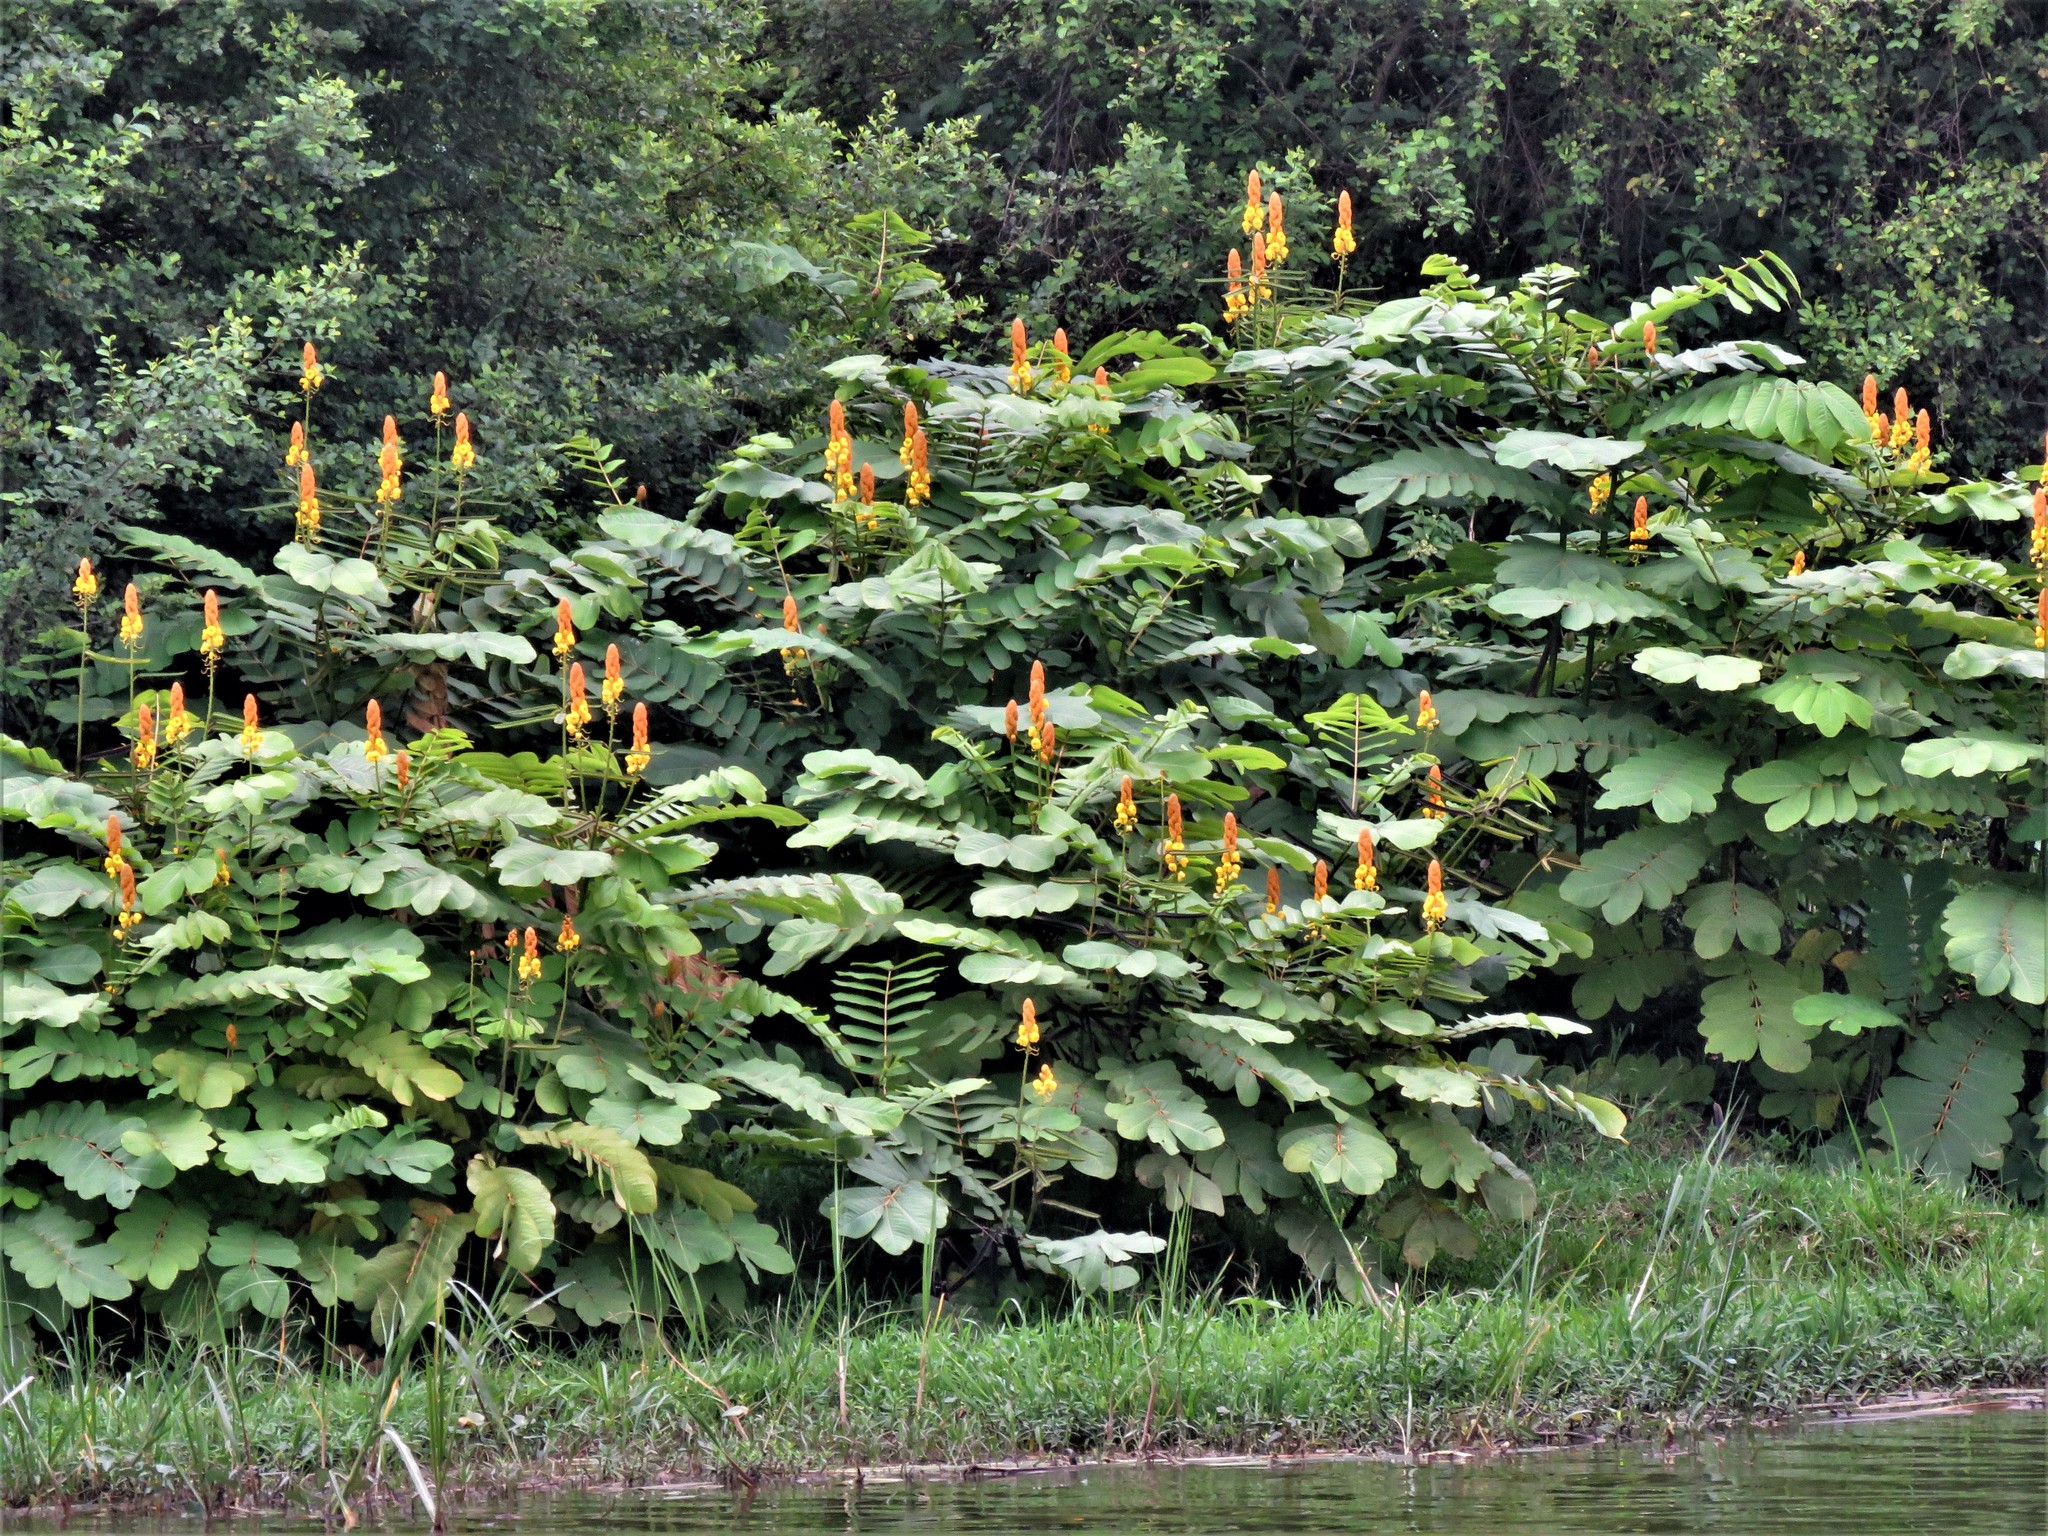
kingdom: Plantae
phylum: Tracheophyta
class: Magnoliopsida
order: Fabales
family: Fabaceae
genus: Senna
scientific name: Senna alata
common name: Emperor's candlesticks
